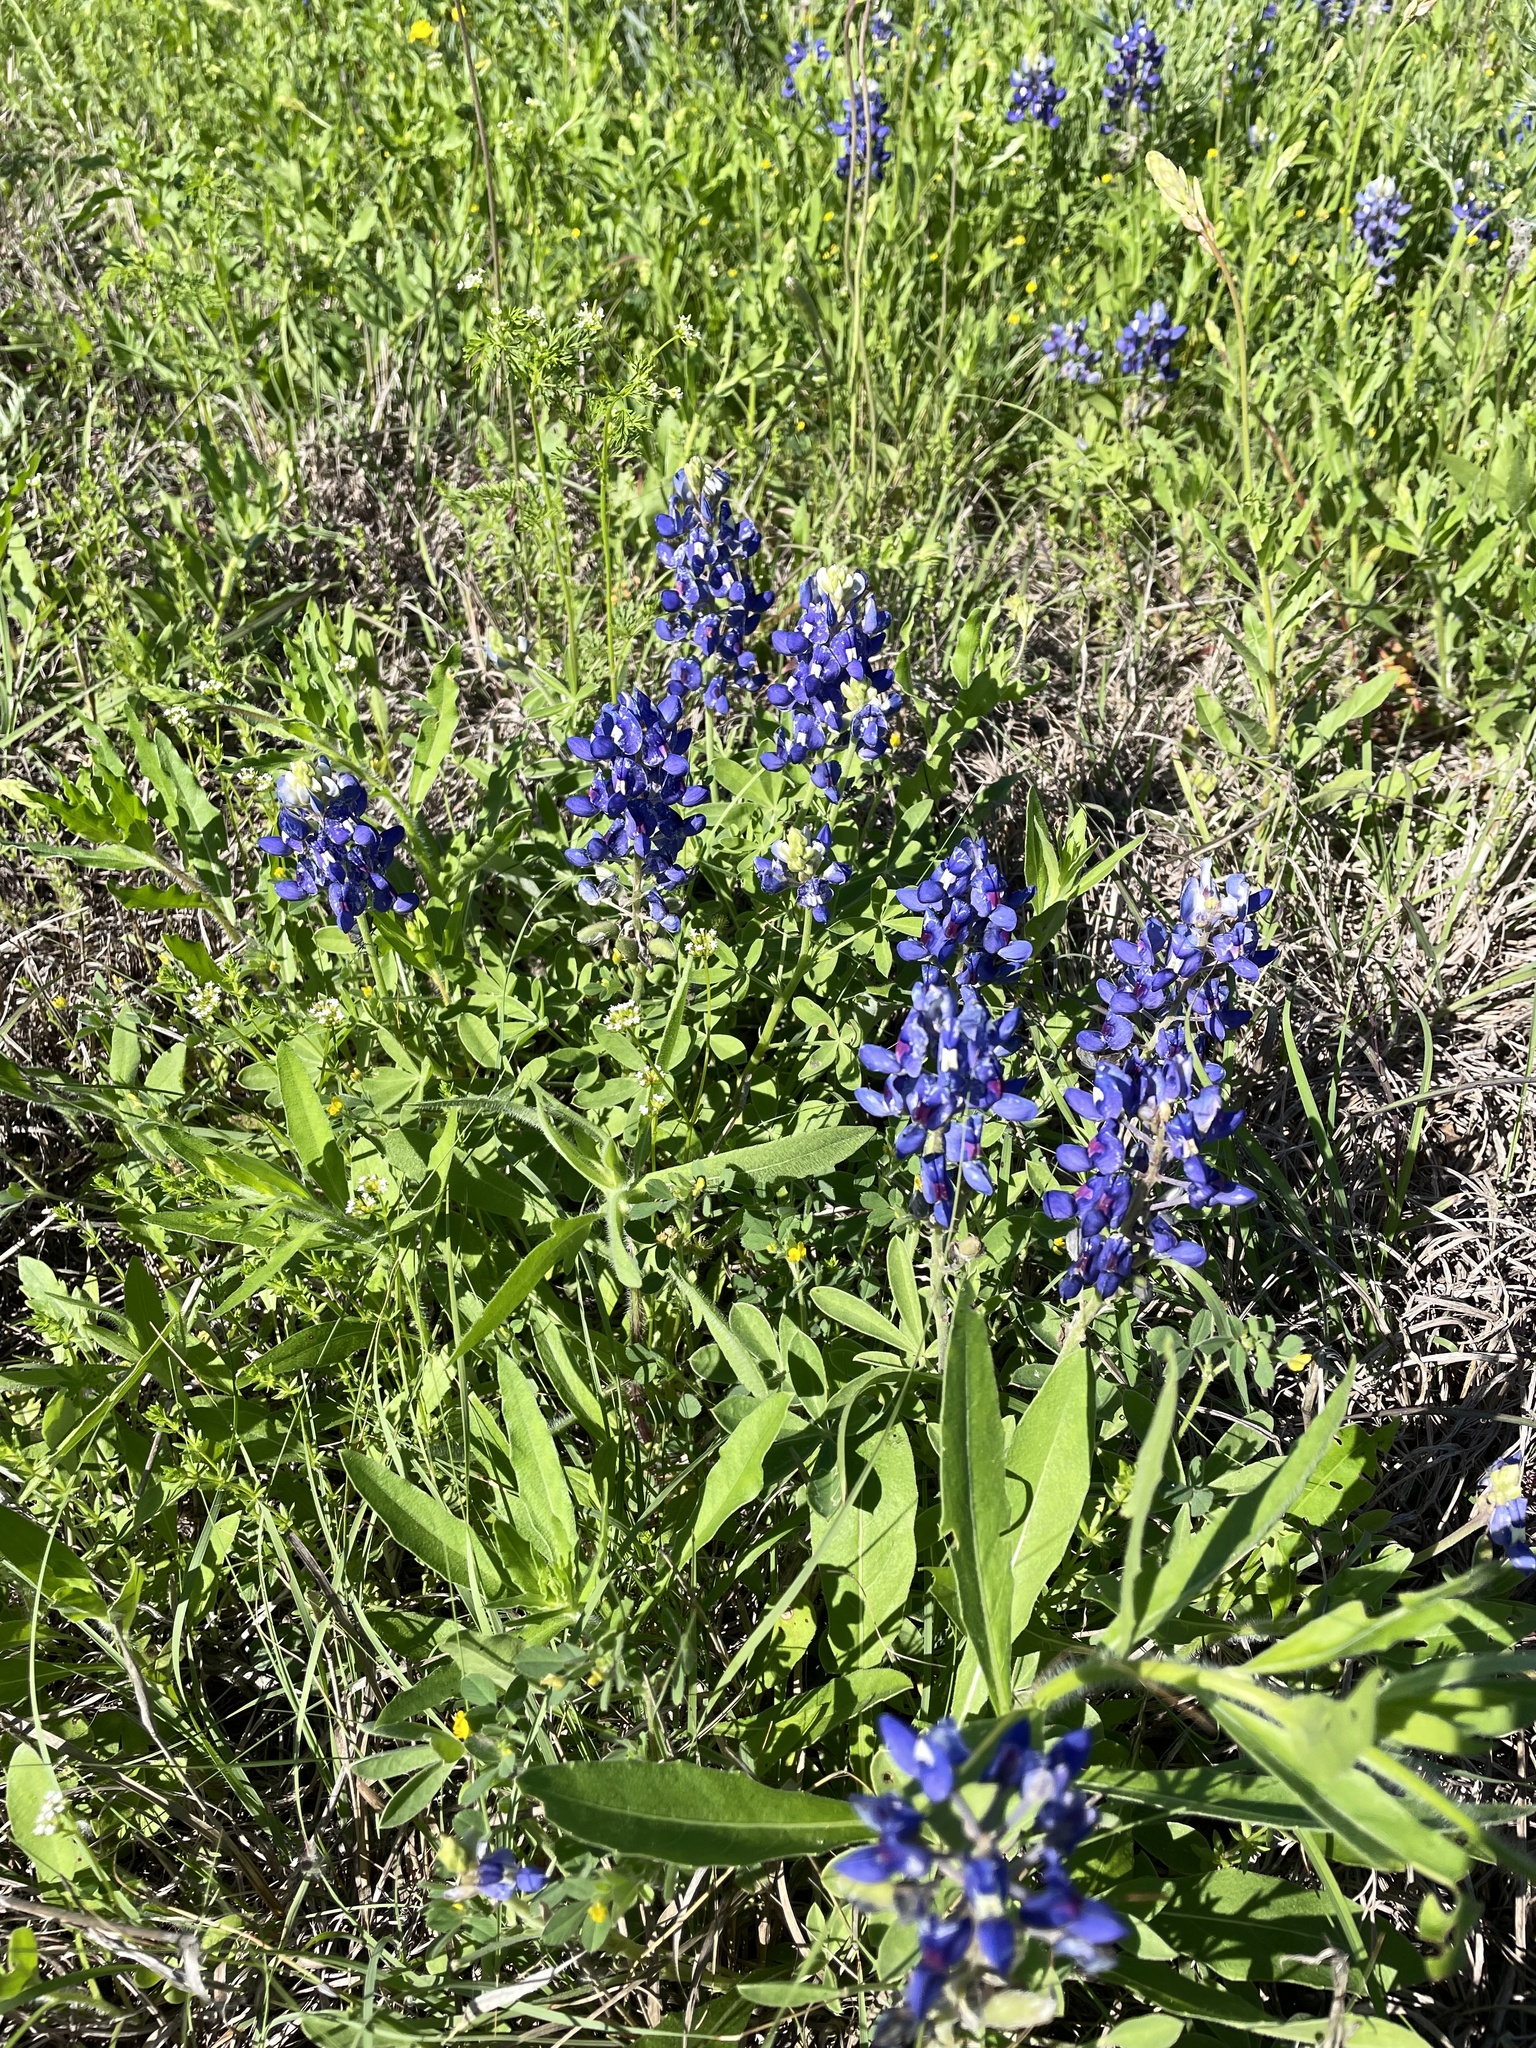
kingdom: Plantae
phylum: Tracheophyta
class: Magnoliopsida
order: Fabales
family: Fabaceae
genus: Lupinus
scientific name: Lupinus texensis
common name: Texas bluebonnet
